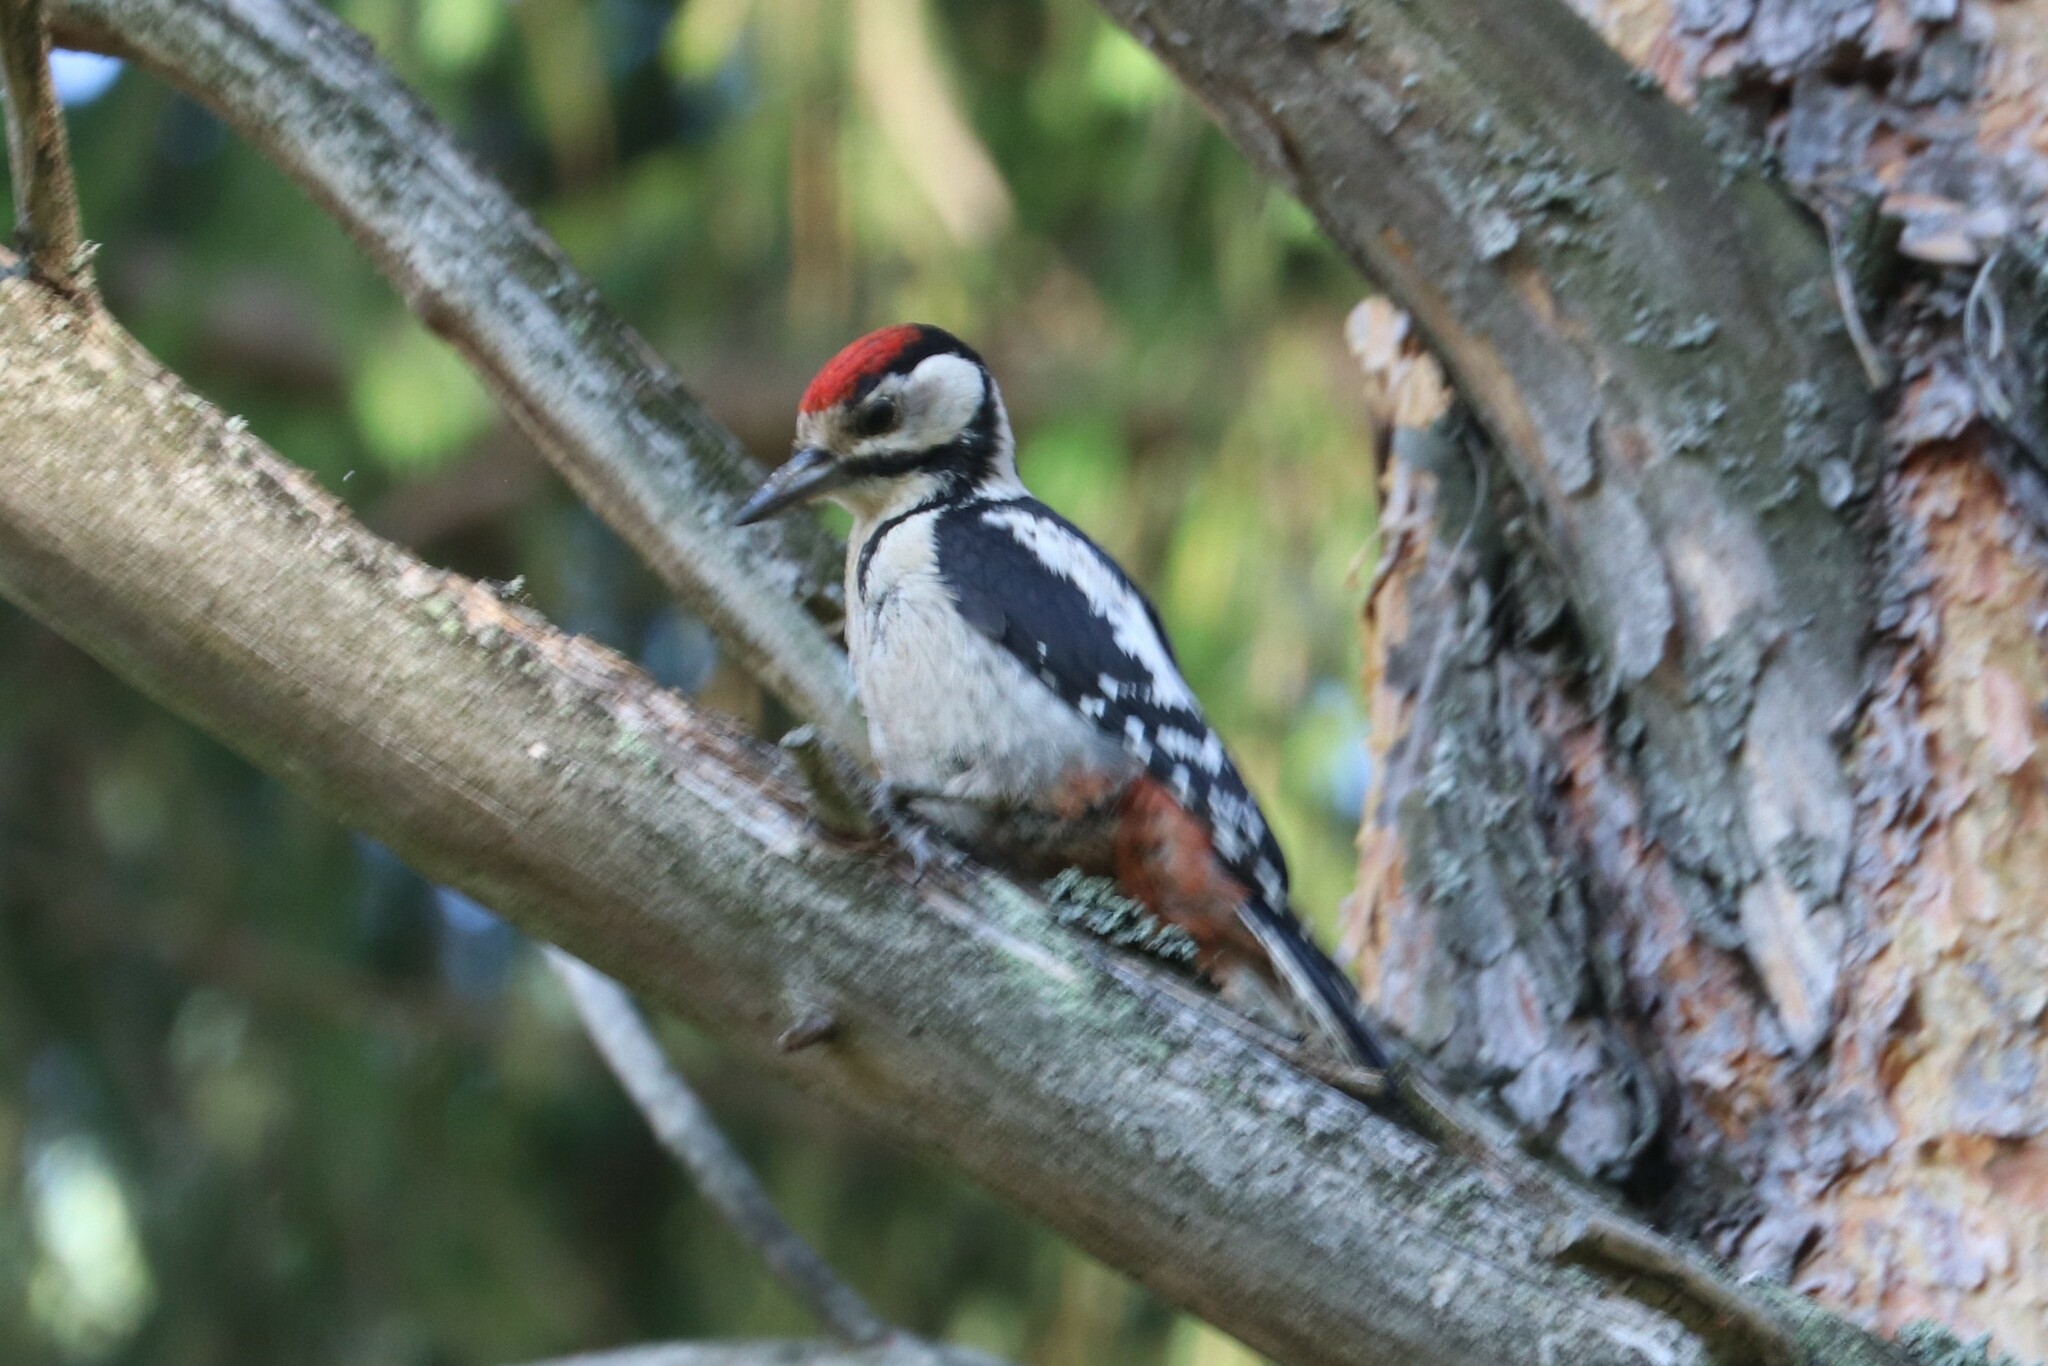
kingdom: Animalia
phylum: Chordata
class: Aves
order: Piciformes
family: Picidae
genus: Dendrocopos
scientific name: Dendrocopos major
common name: Great spotted woodpecker
